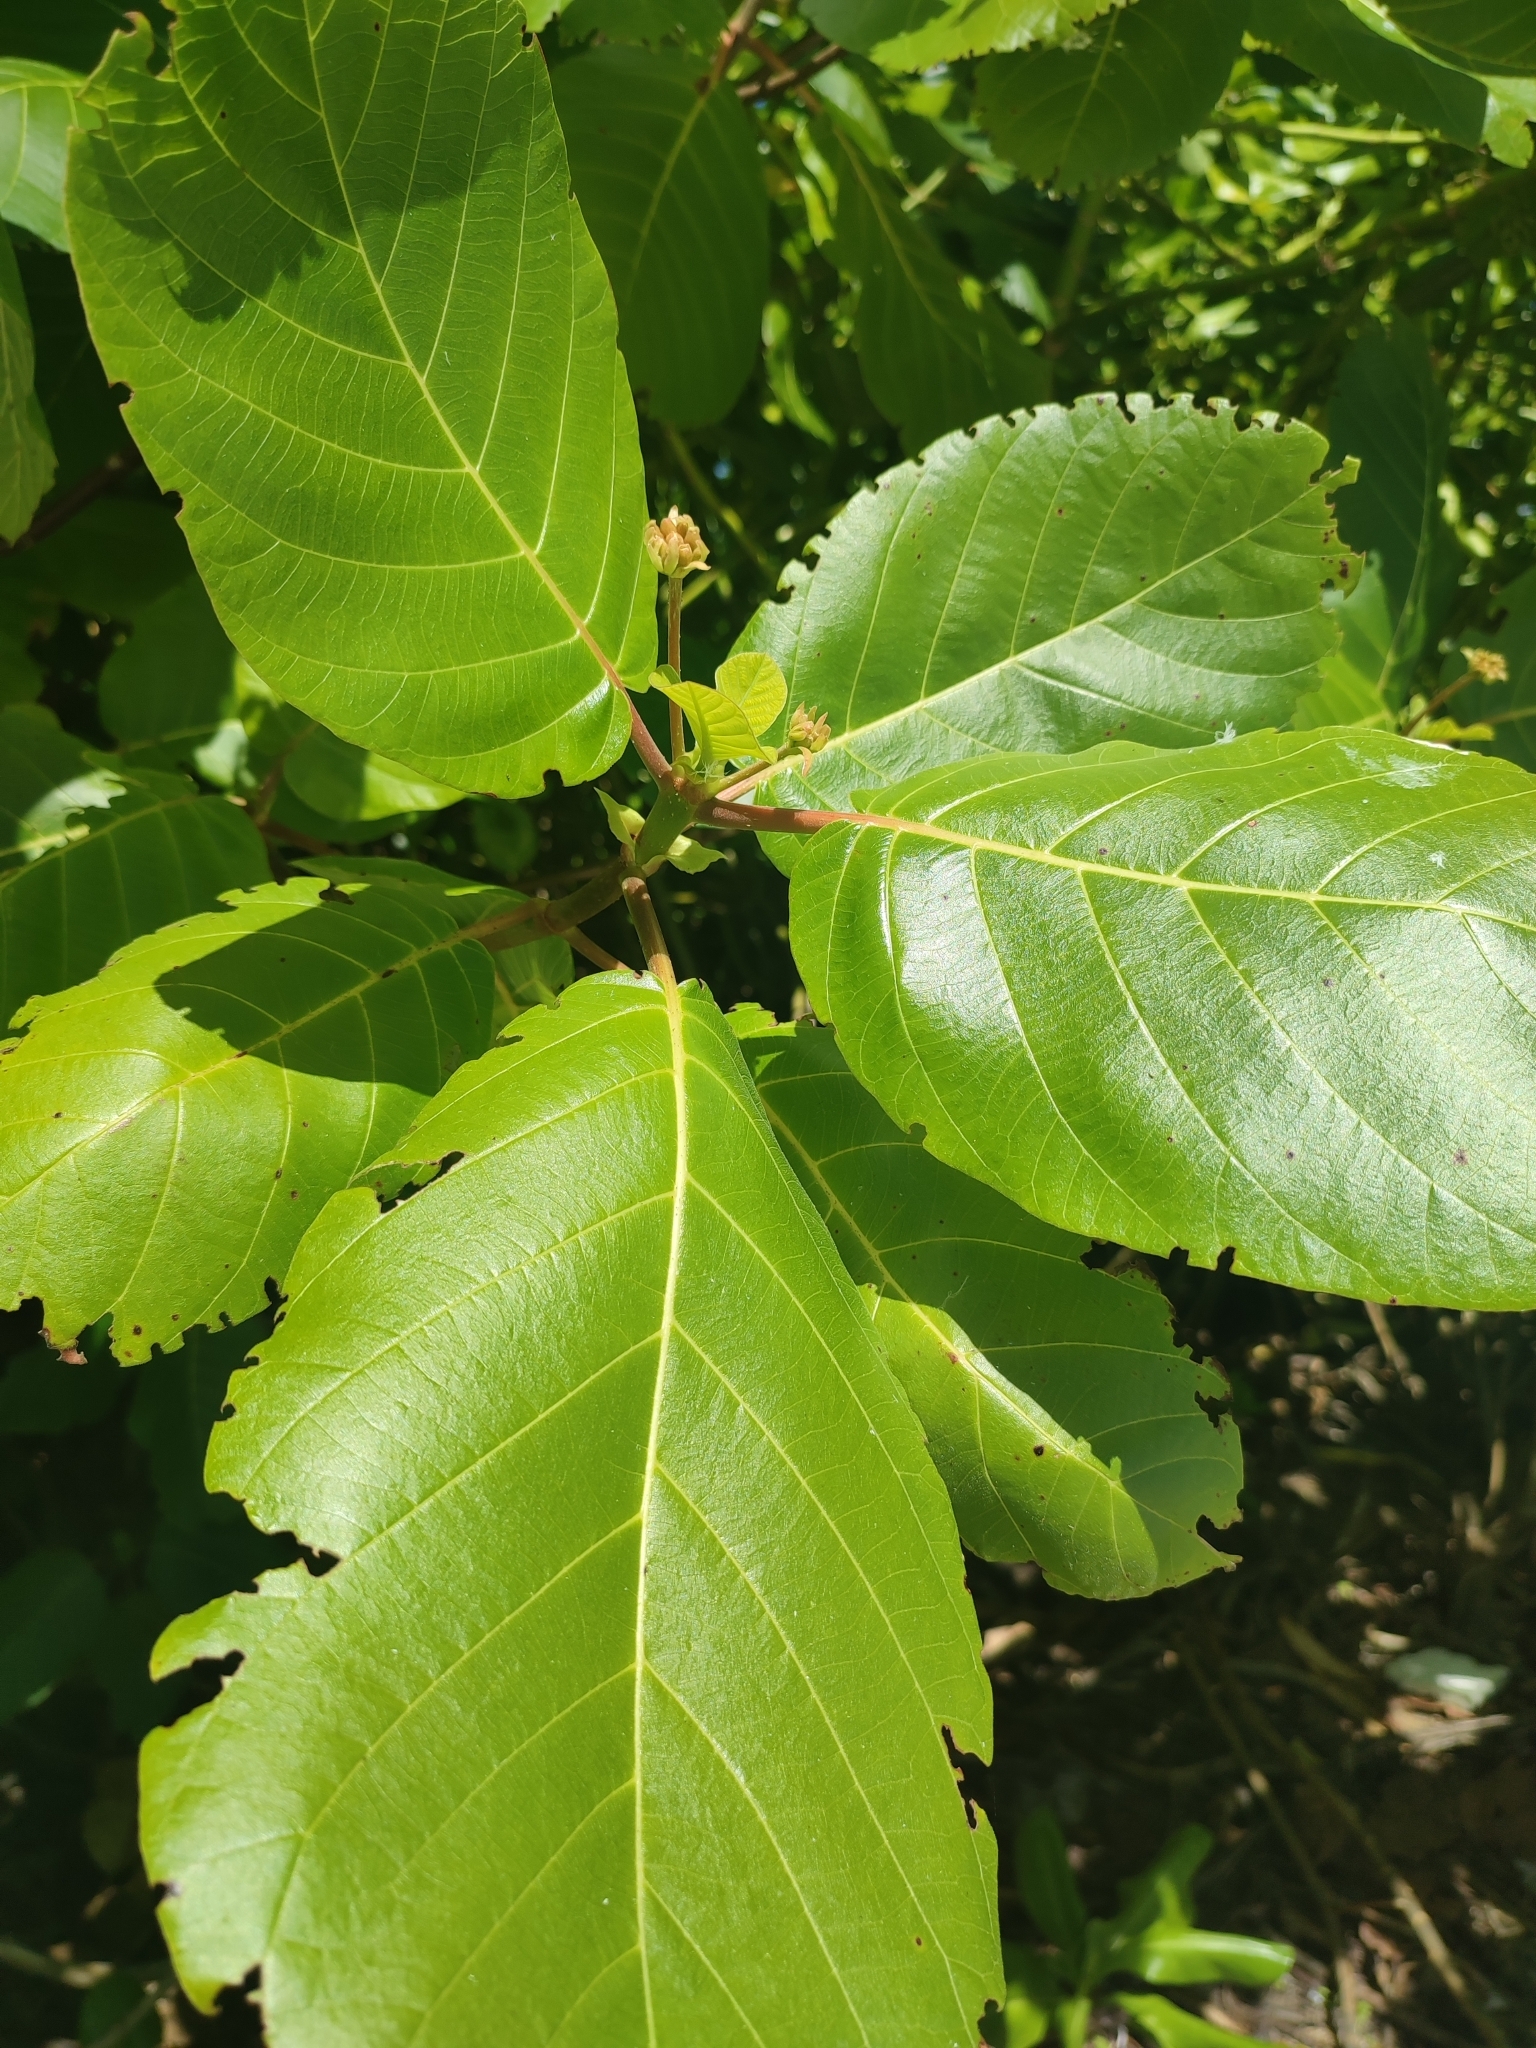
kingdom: Plantae
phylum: Tracheophyta
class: Magnoliopsida
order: Gentianales
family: Rubiaceae
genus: Guettarda
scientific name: Guettarda speciosa
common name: Sea randa
